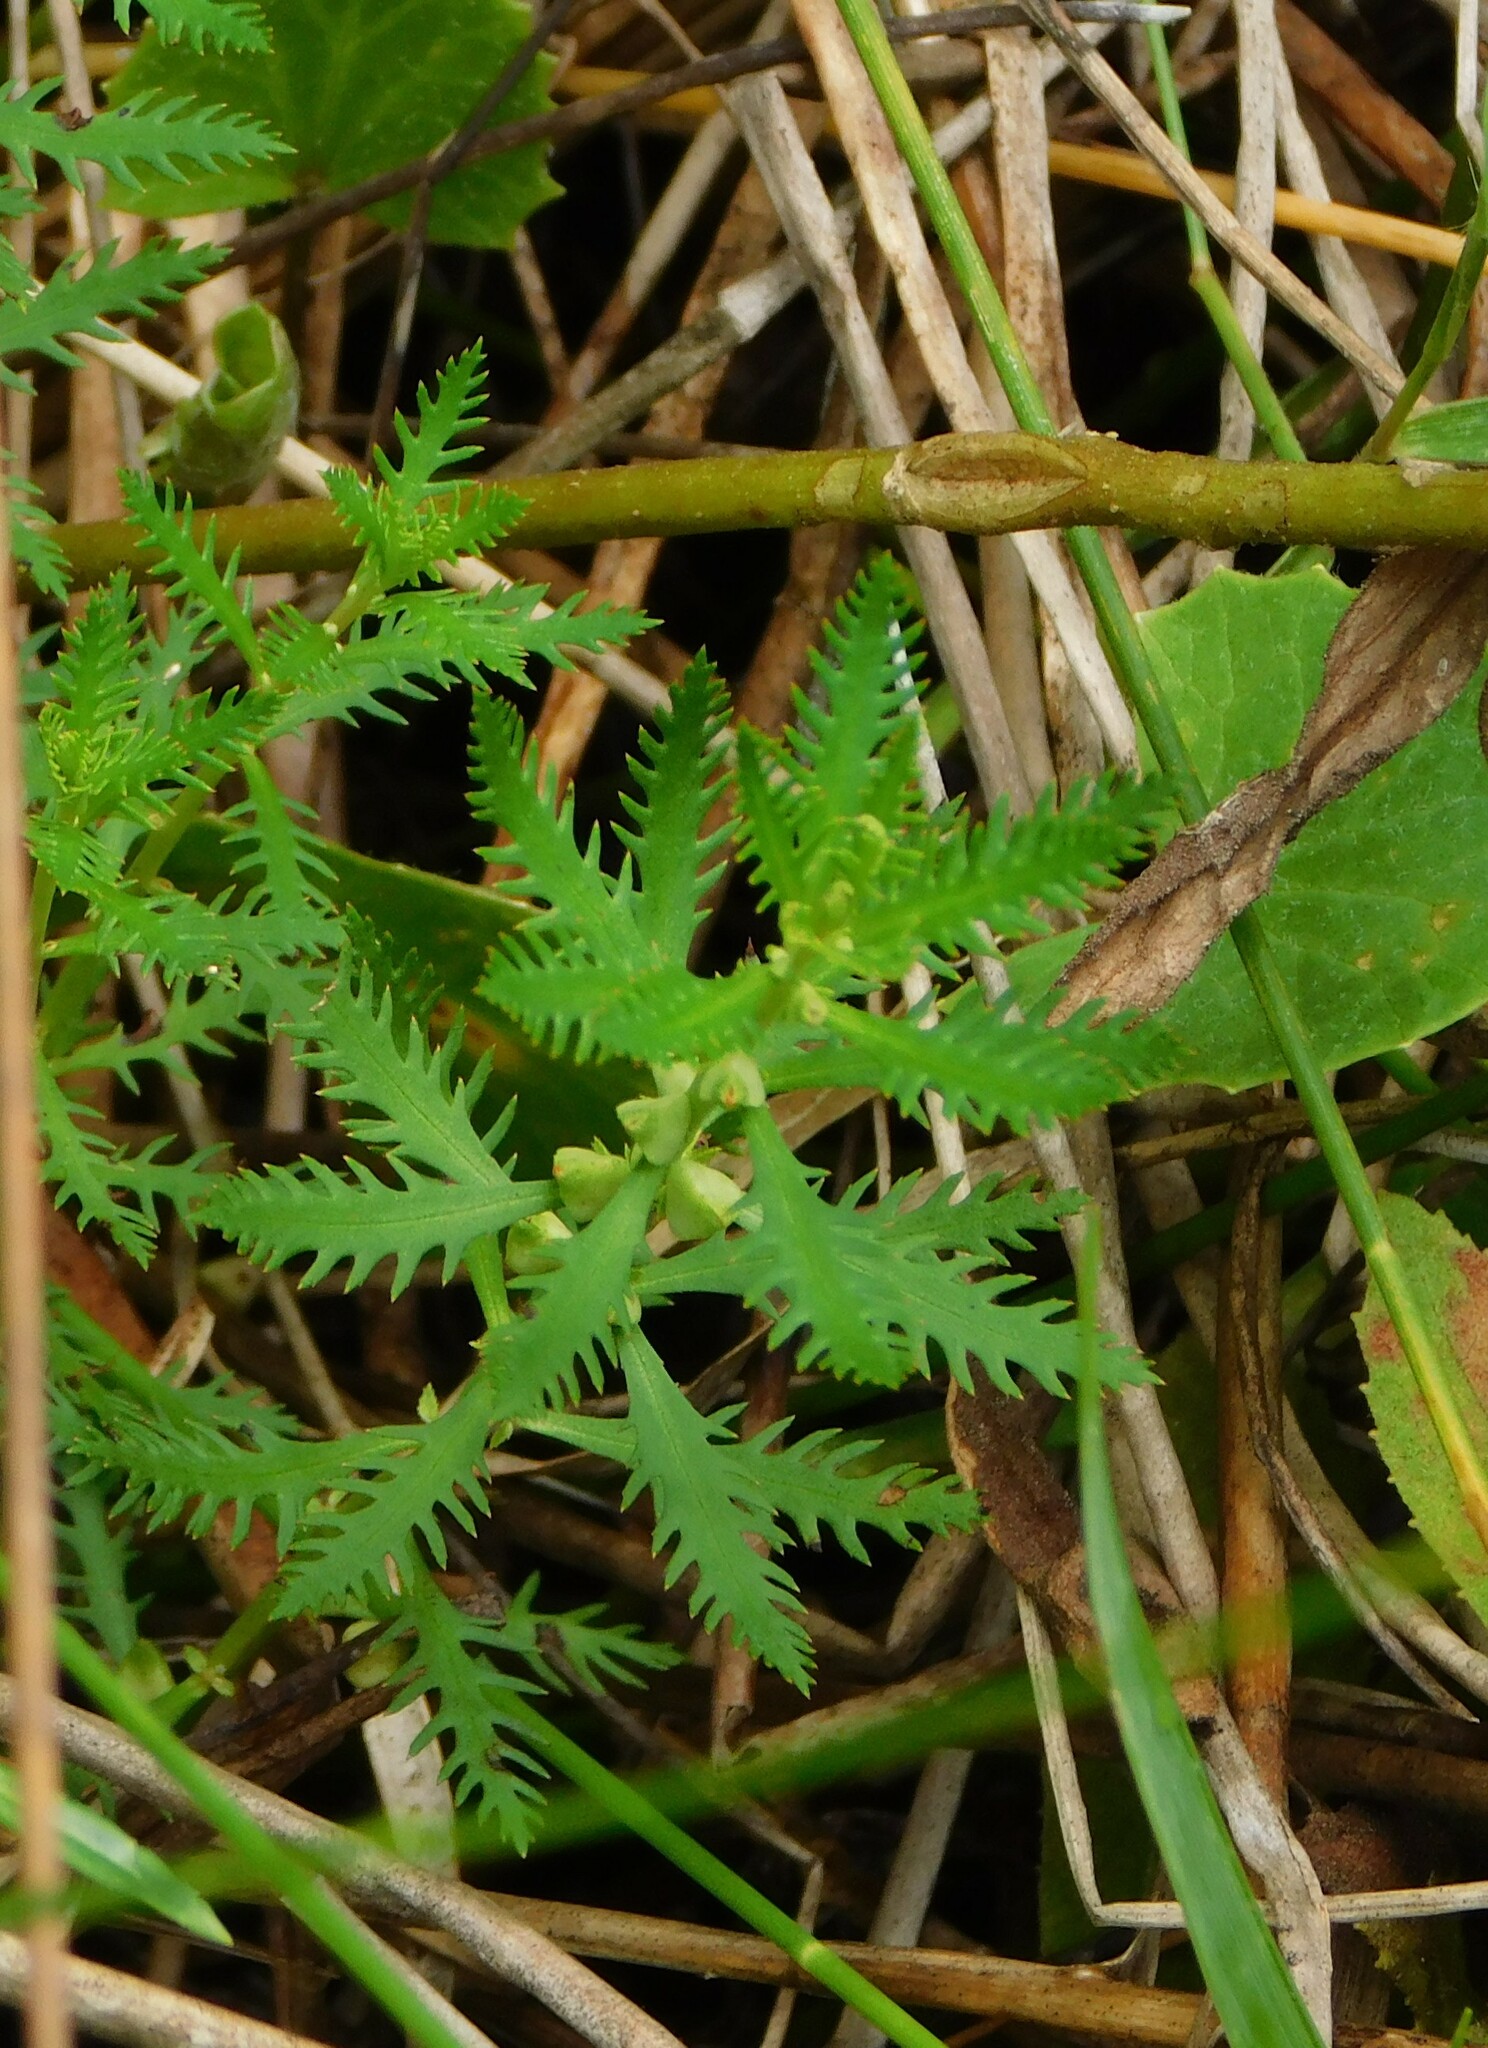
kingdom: Plantae
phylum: Tracheophyta
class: Magnoliopsida
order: Saxifragales
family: Haloragaceae
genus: Proserpinaca
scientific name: Proserpinaca pectinata
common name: Comb-leaved mermaidweed
